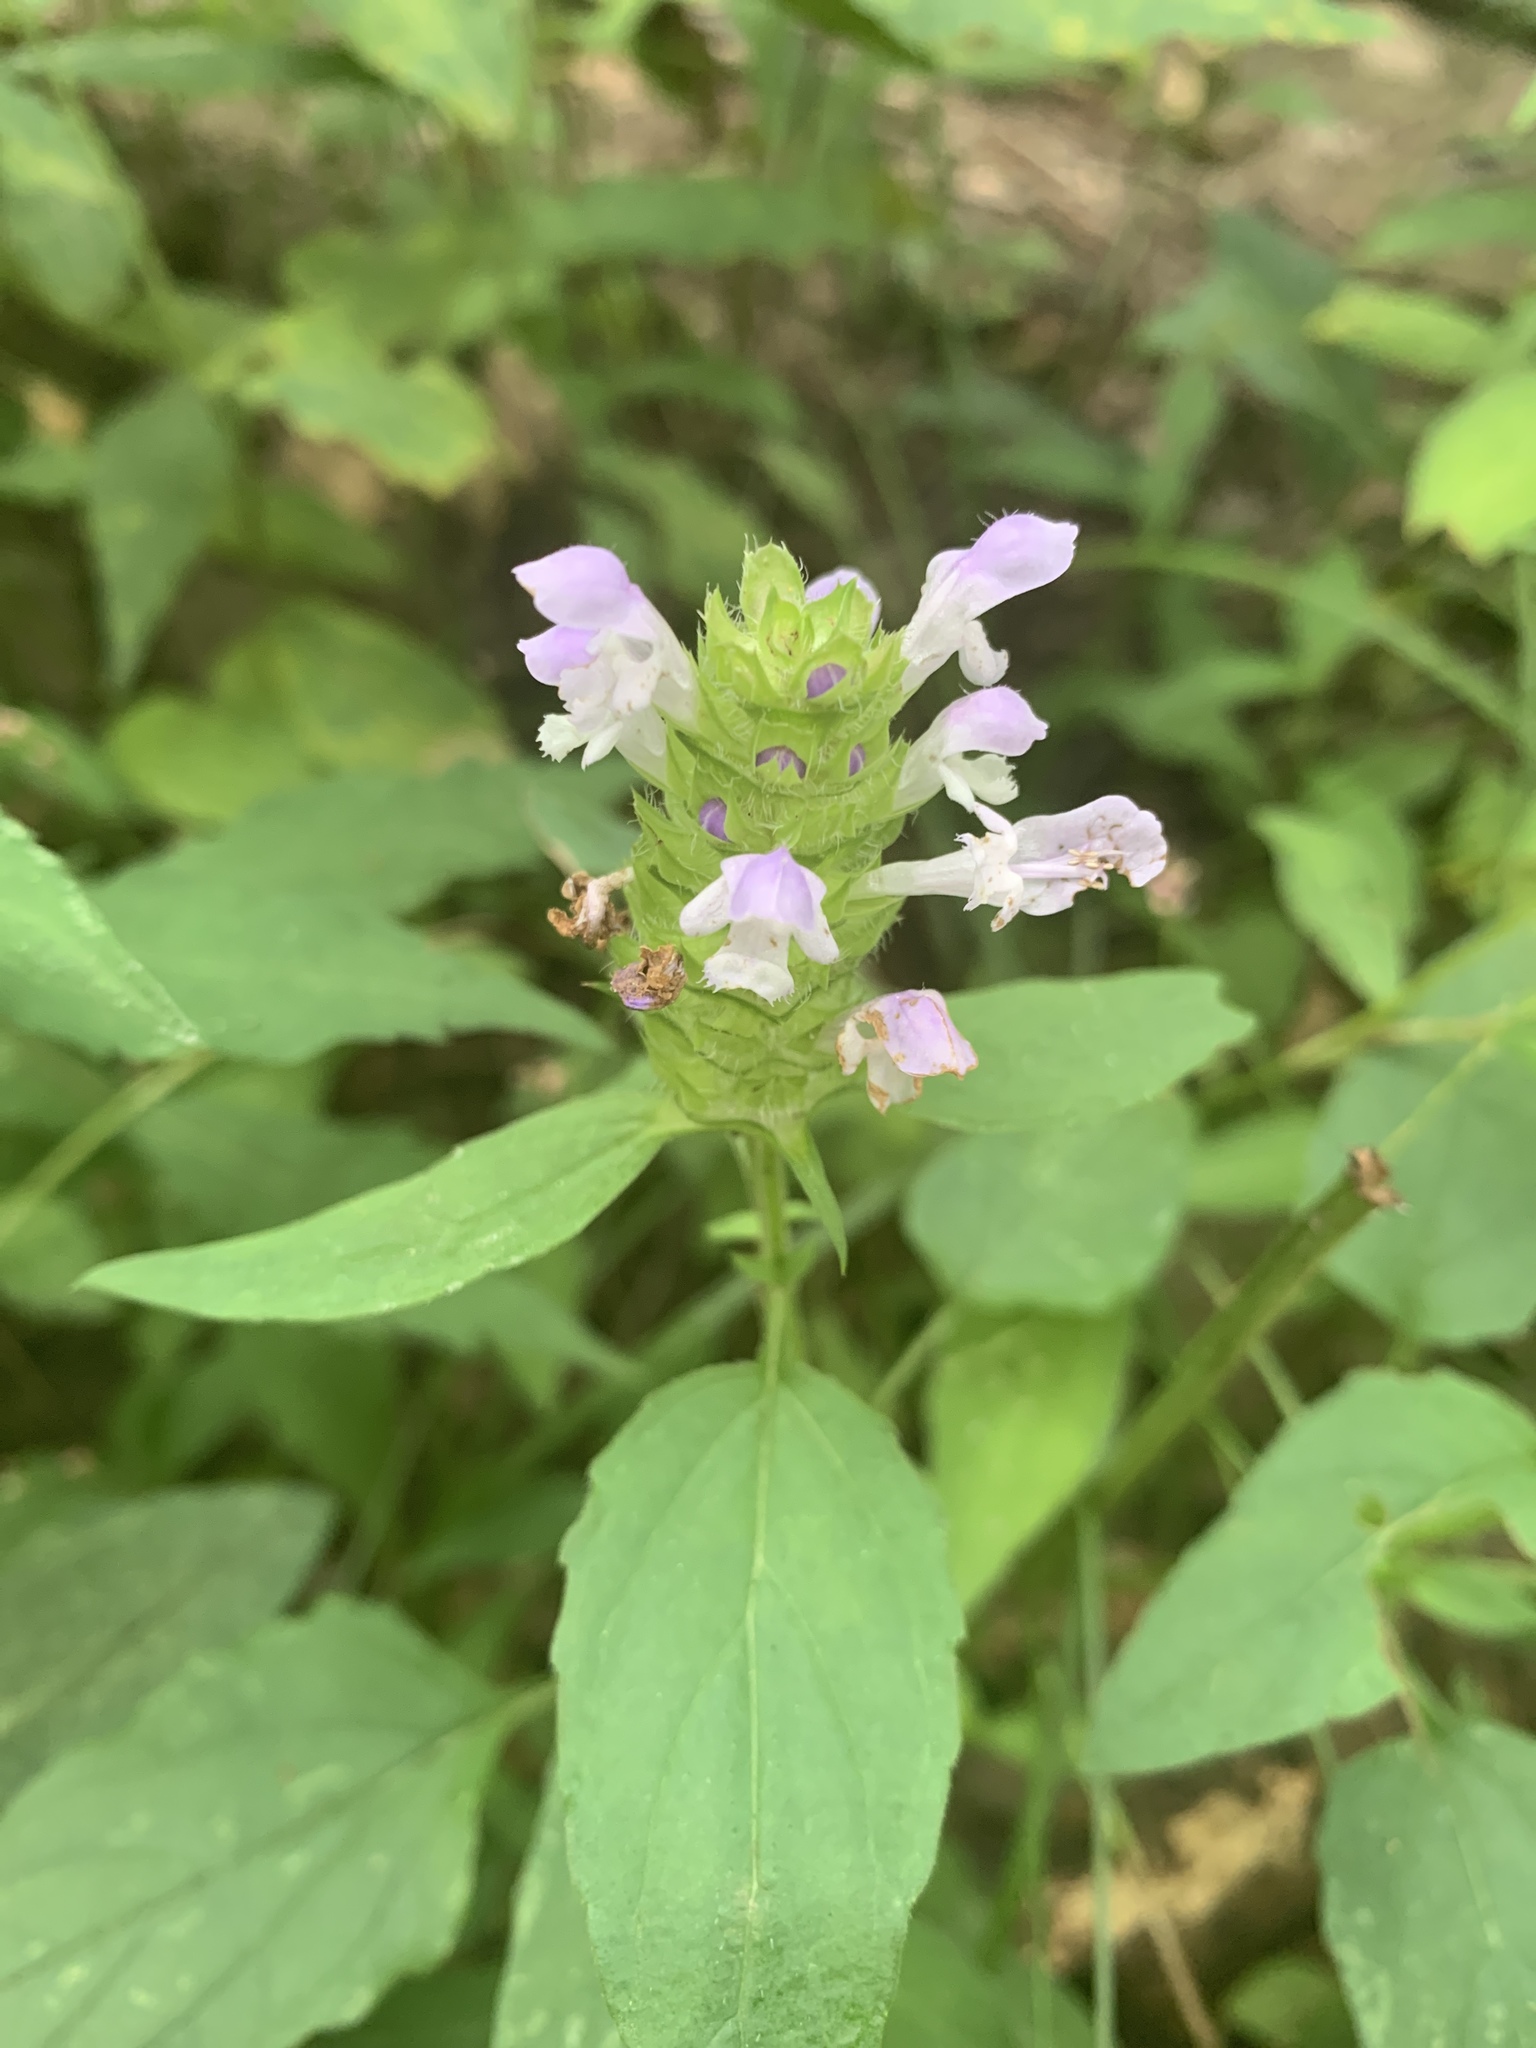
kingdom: Plantae
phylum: Tracheophyta
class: Magnoliopsida
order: Lamiales
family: Lamiaceae
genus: Prunella
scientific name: Prunella vulgaris
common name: Heal-all
